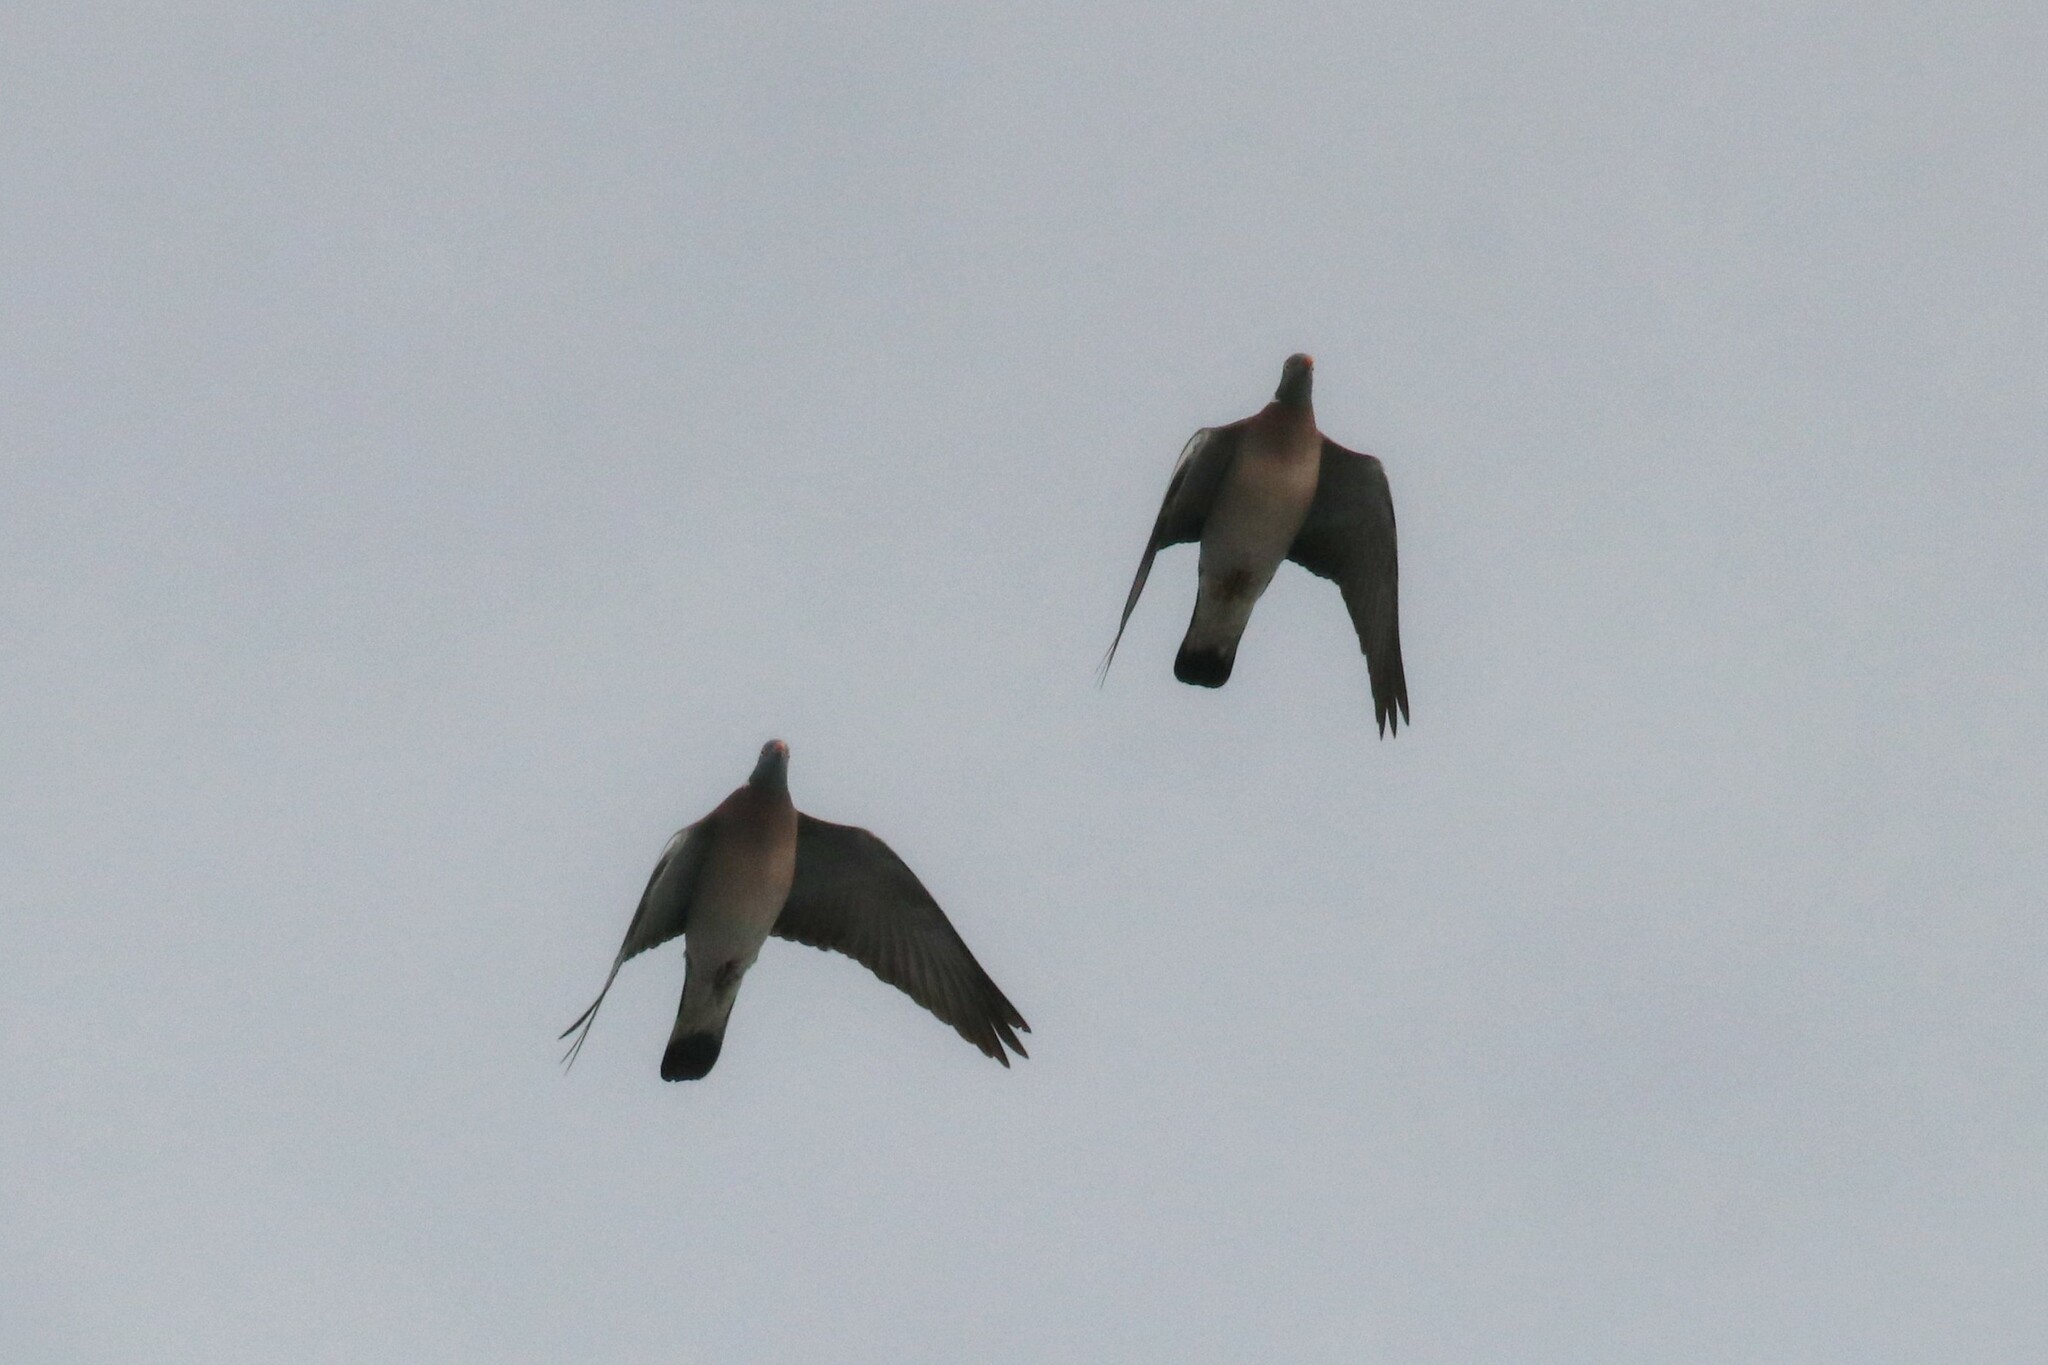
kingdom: Animalia
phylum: Chordata
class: Aves
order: Columbiformes
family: Columbidae
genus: Columba
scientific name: Columba palumbus
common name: Common wood pigeon
